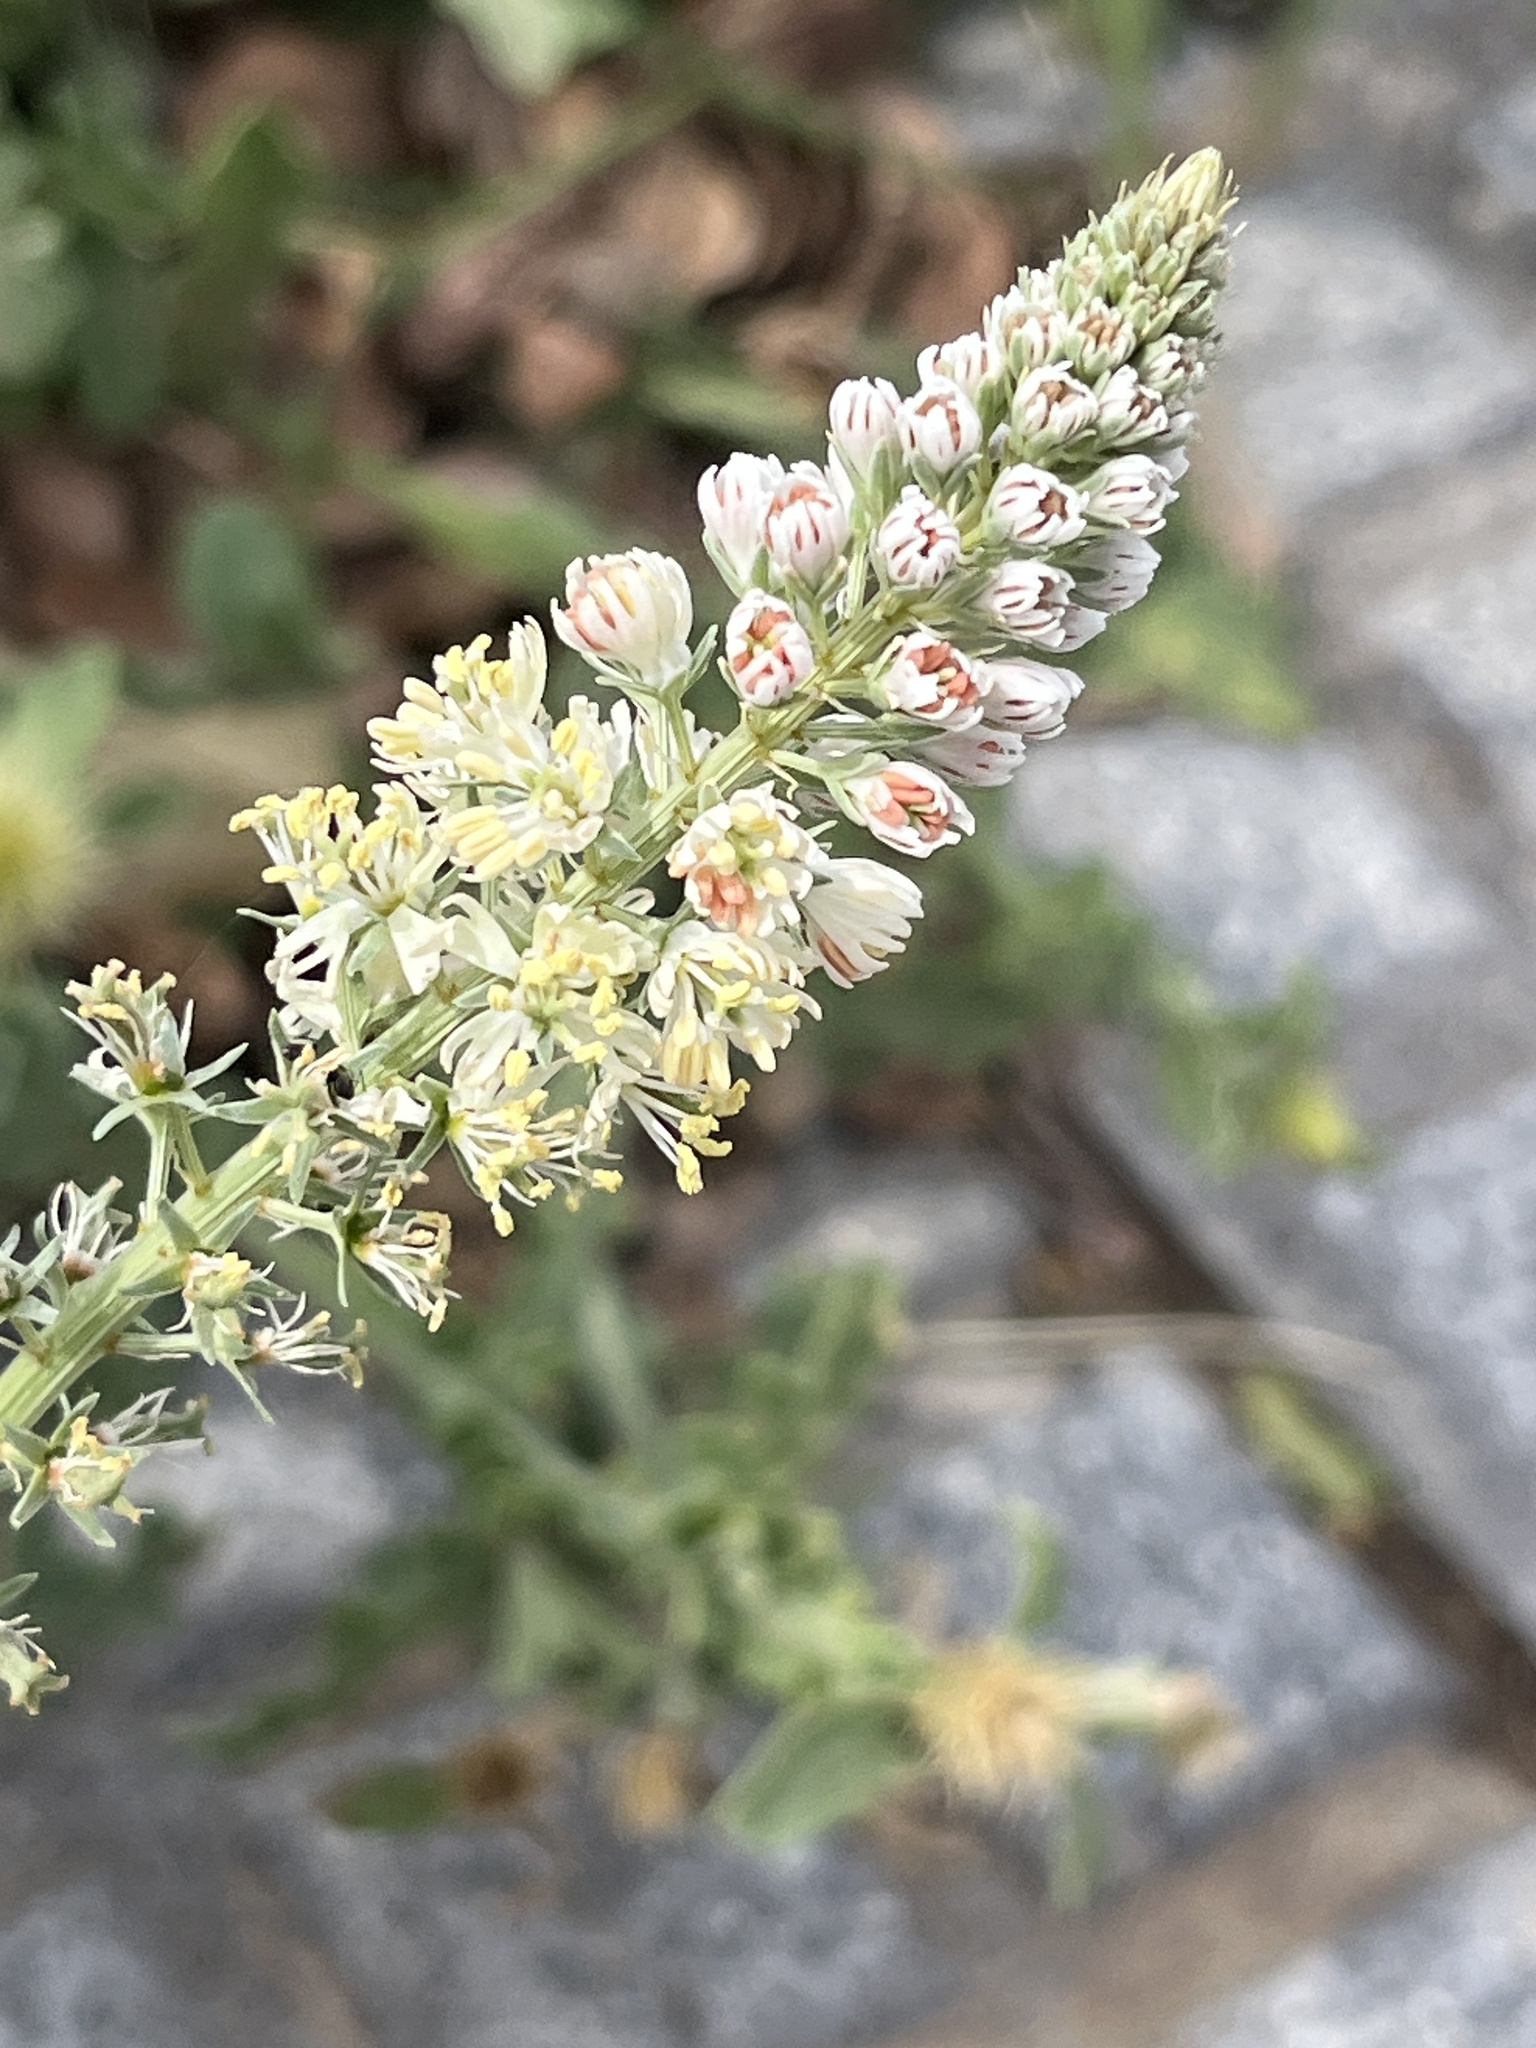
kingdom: Plantae
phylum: Tracheophyta
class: Magnoliopsida
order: Brassicales
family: Resedaceae
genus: Reseda
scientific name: Reseda alba
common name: White mignonette
